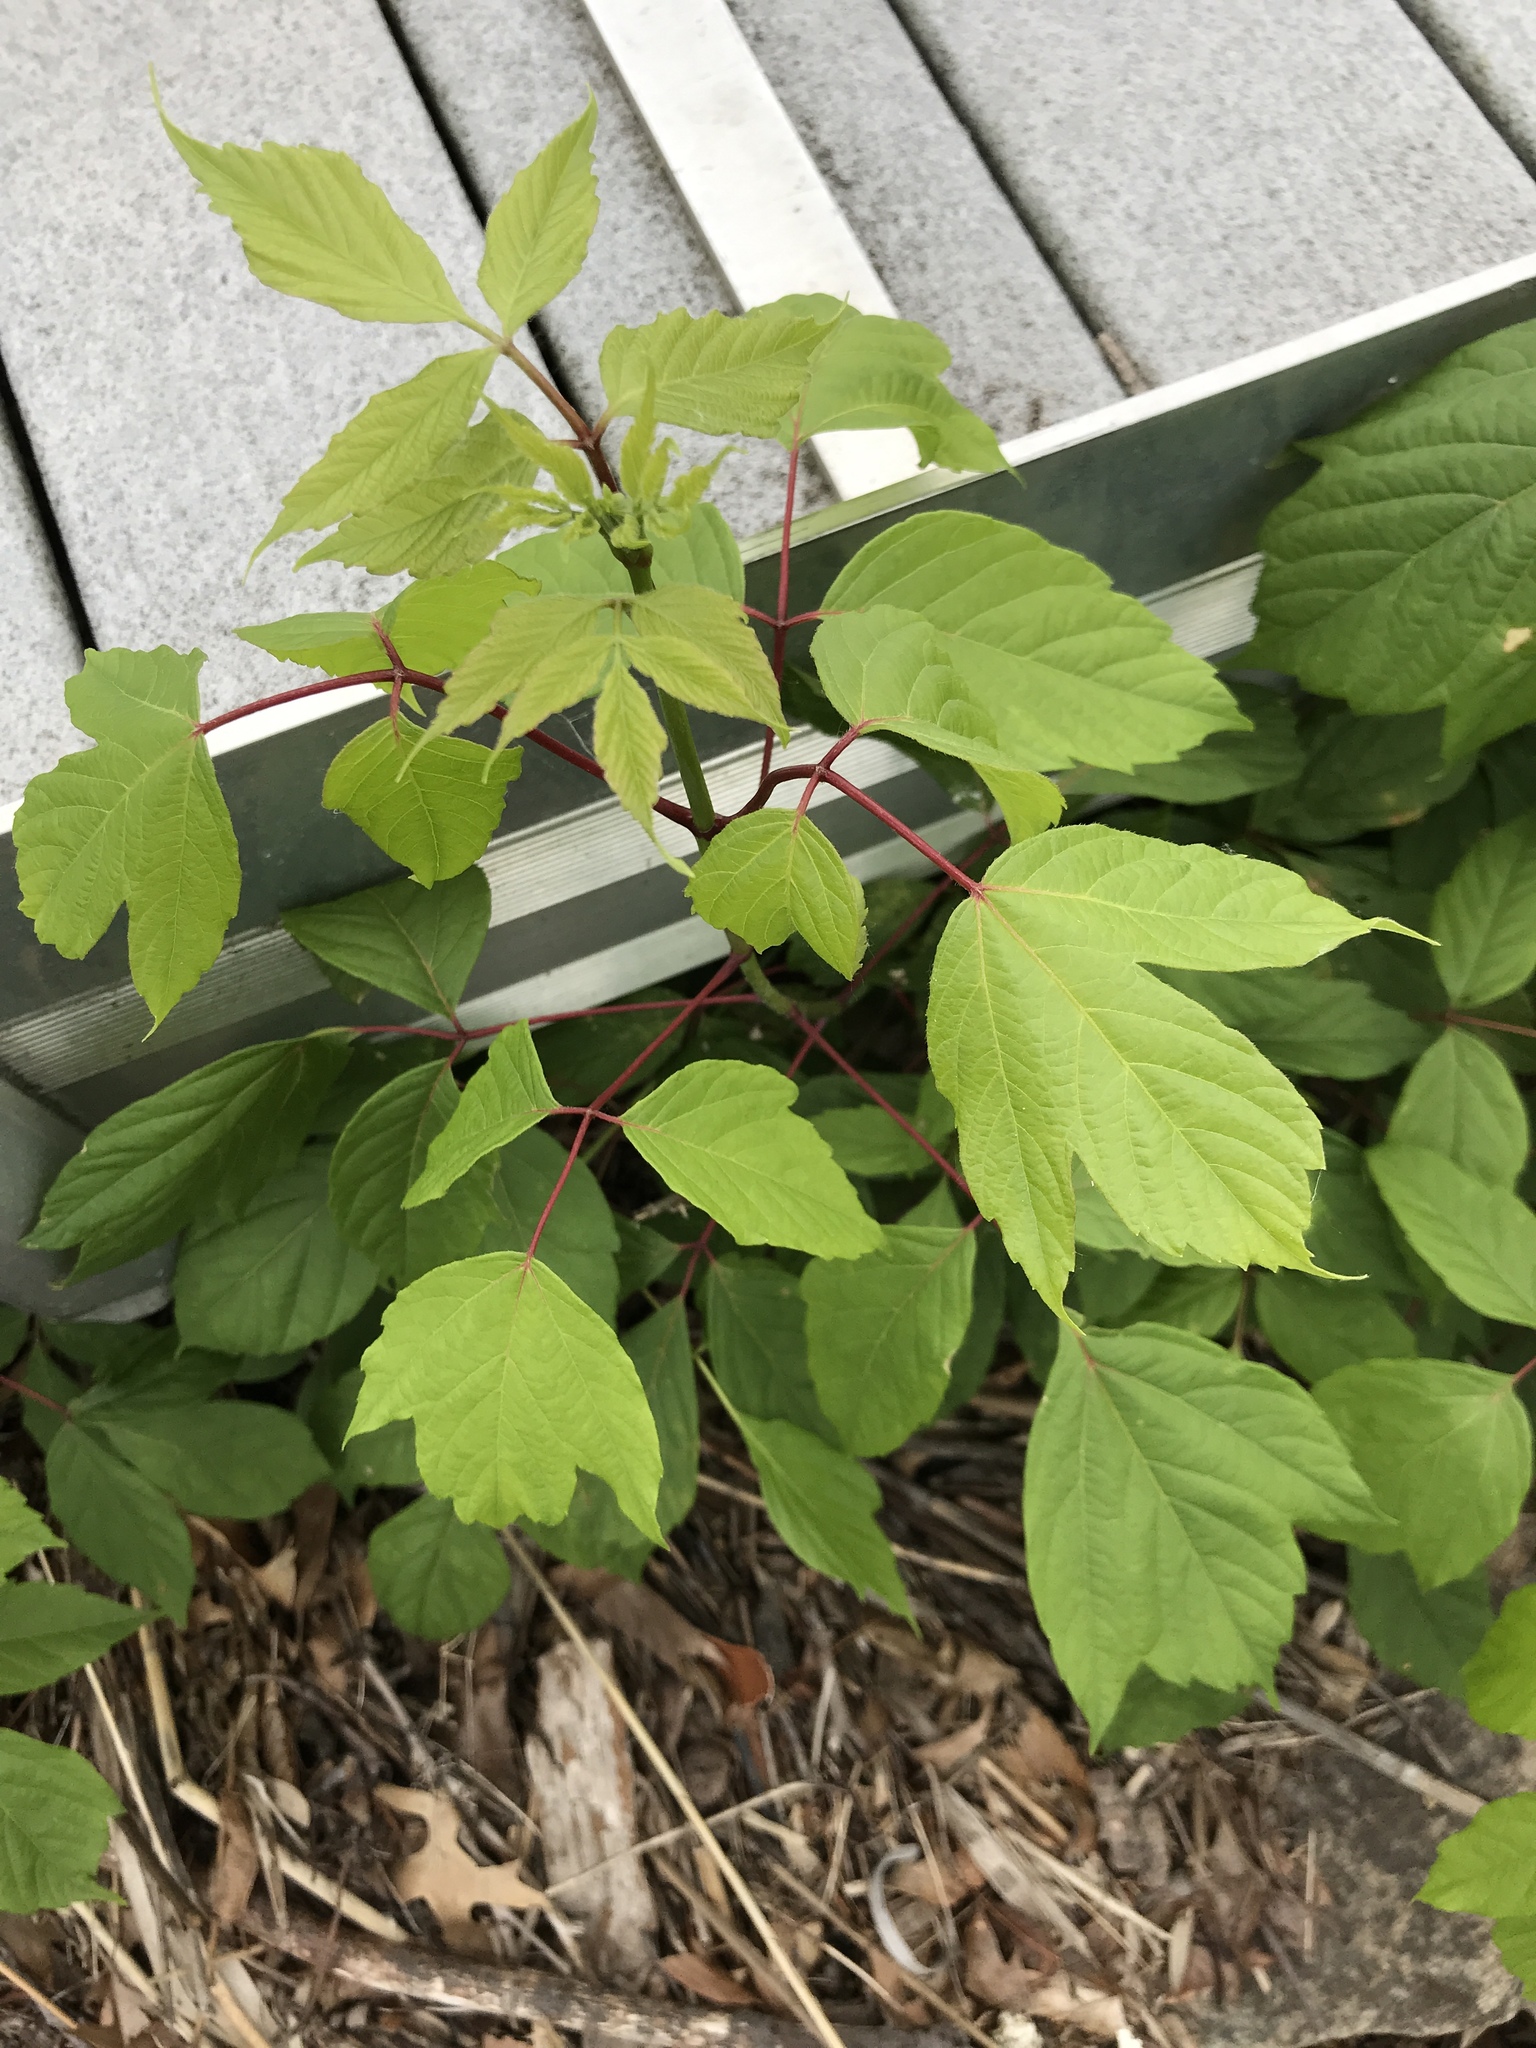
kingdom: Plantae
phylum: Tracheophyta
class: Magnoliopsida
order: Sapindales
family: Sapindaceae
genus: Acer
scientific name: Acer negundo
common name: Ashleaf maple
